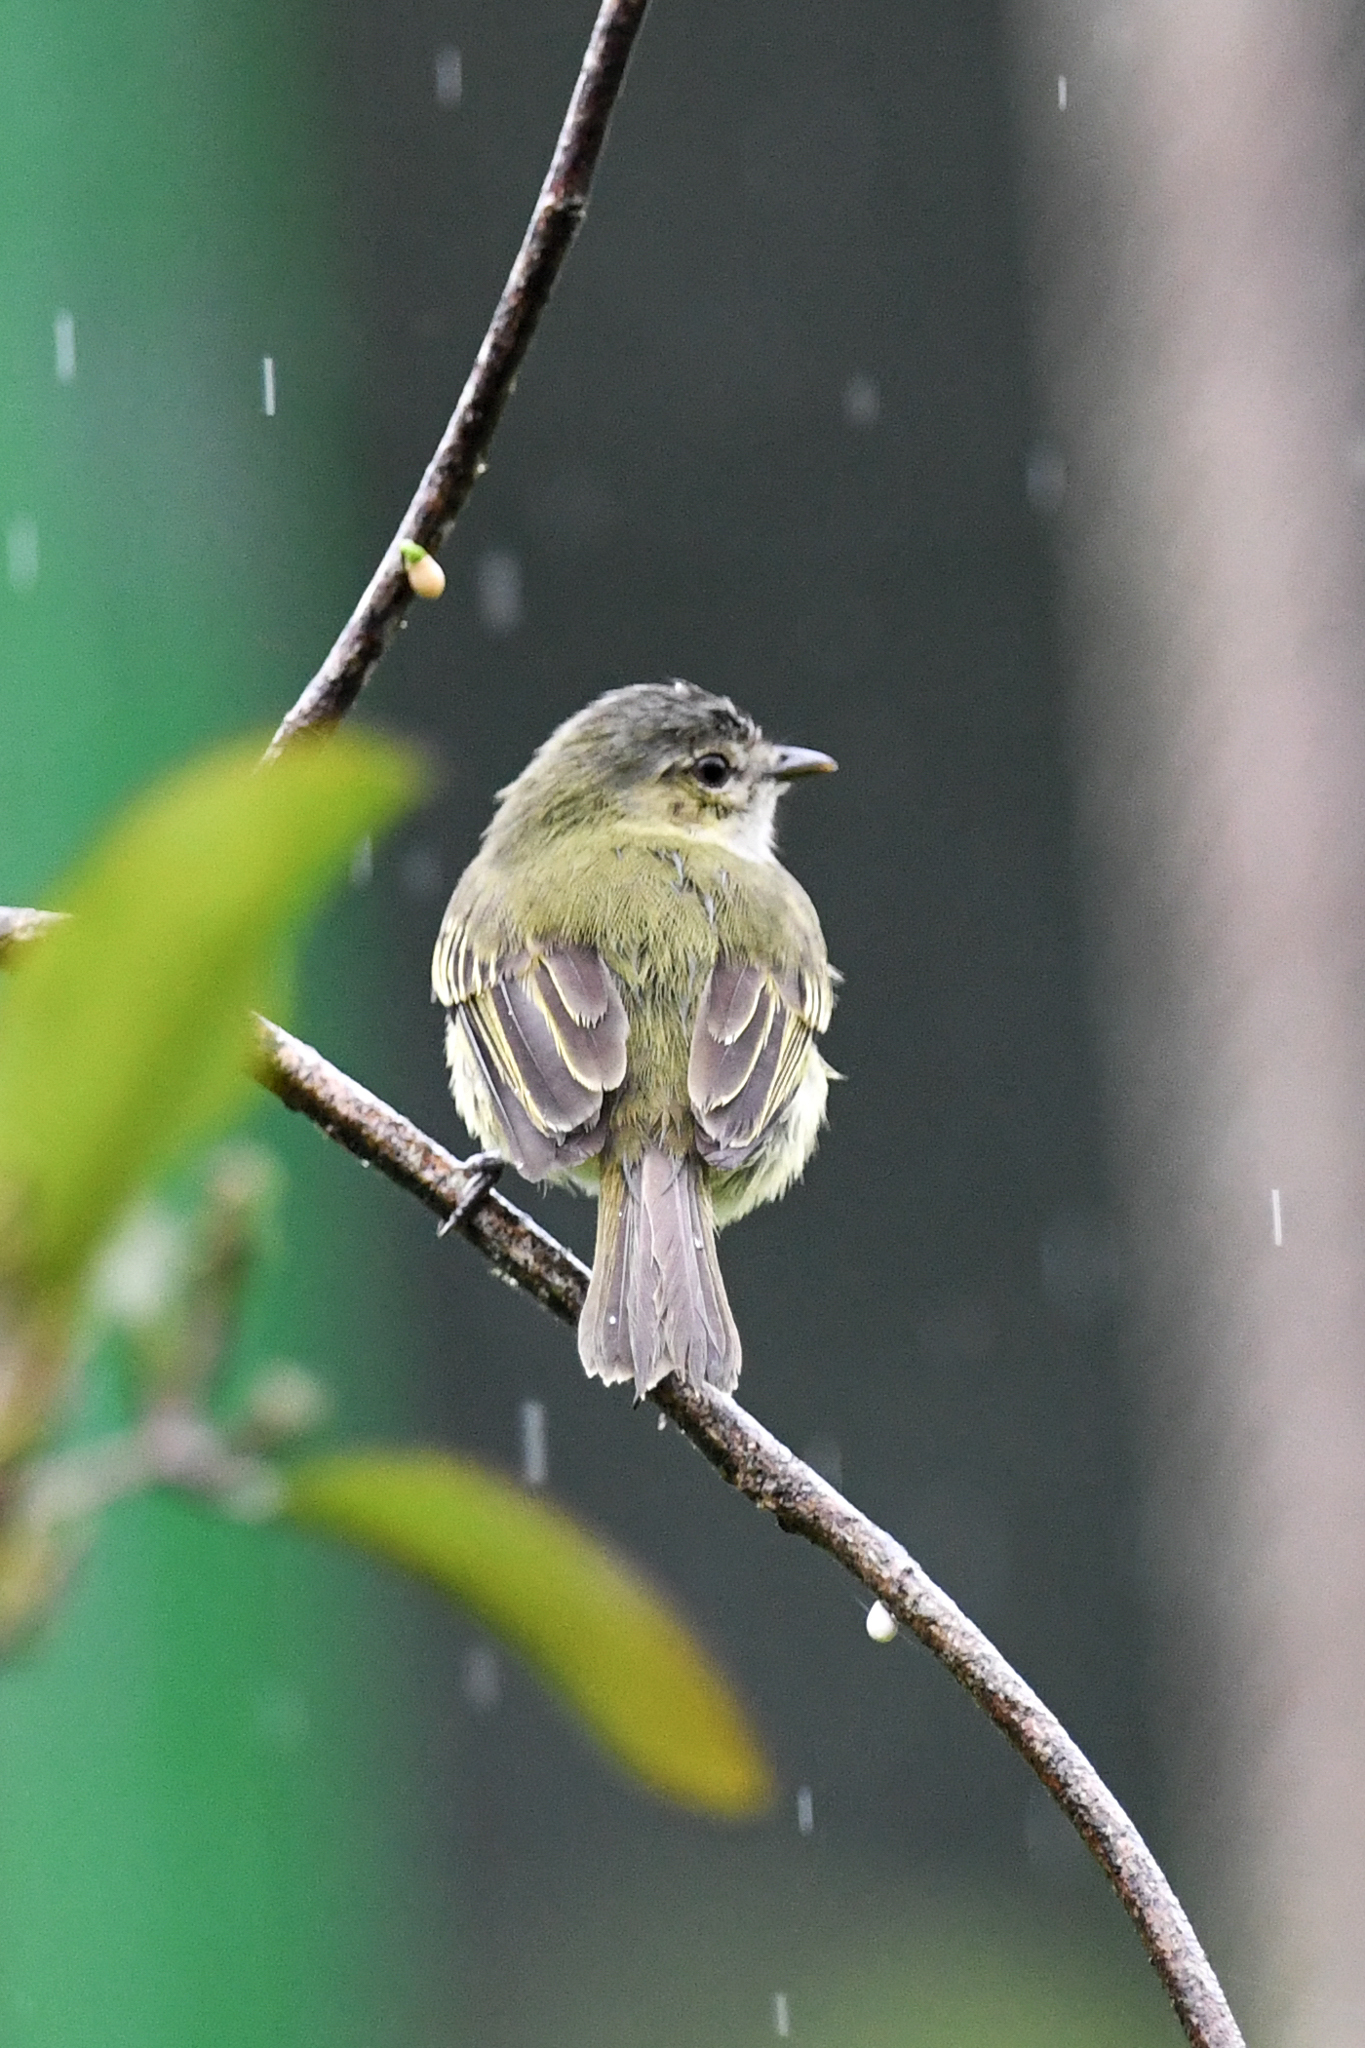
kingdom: Animalia
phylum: Chordata
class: Aves
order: Passeriformes
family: Tyrannidae
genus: Zimmerius
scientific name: Zimmerius vilissimus
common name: Paltry tyrannulet
